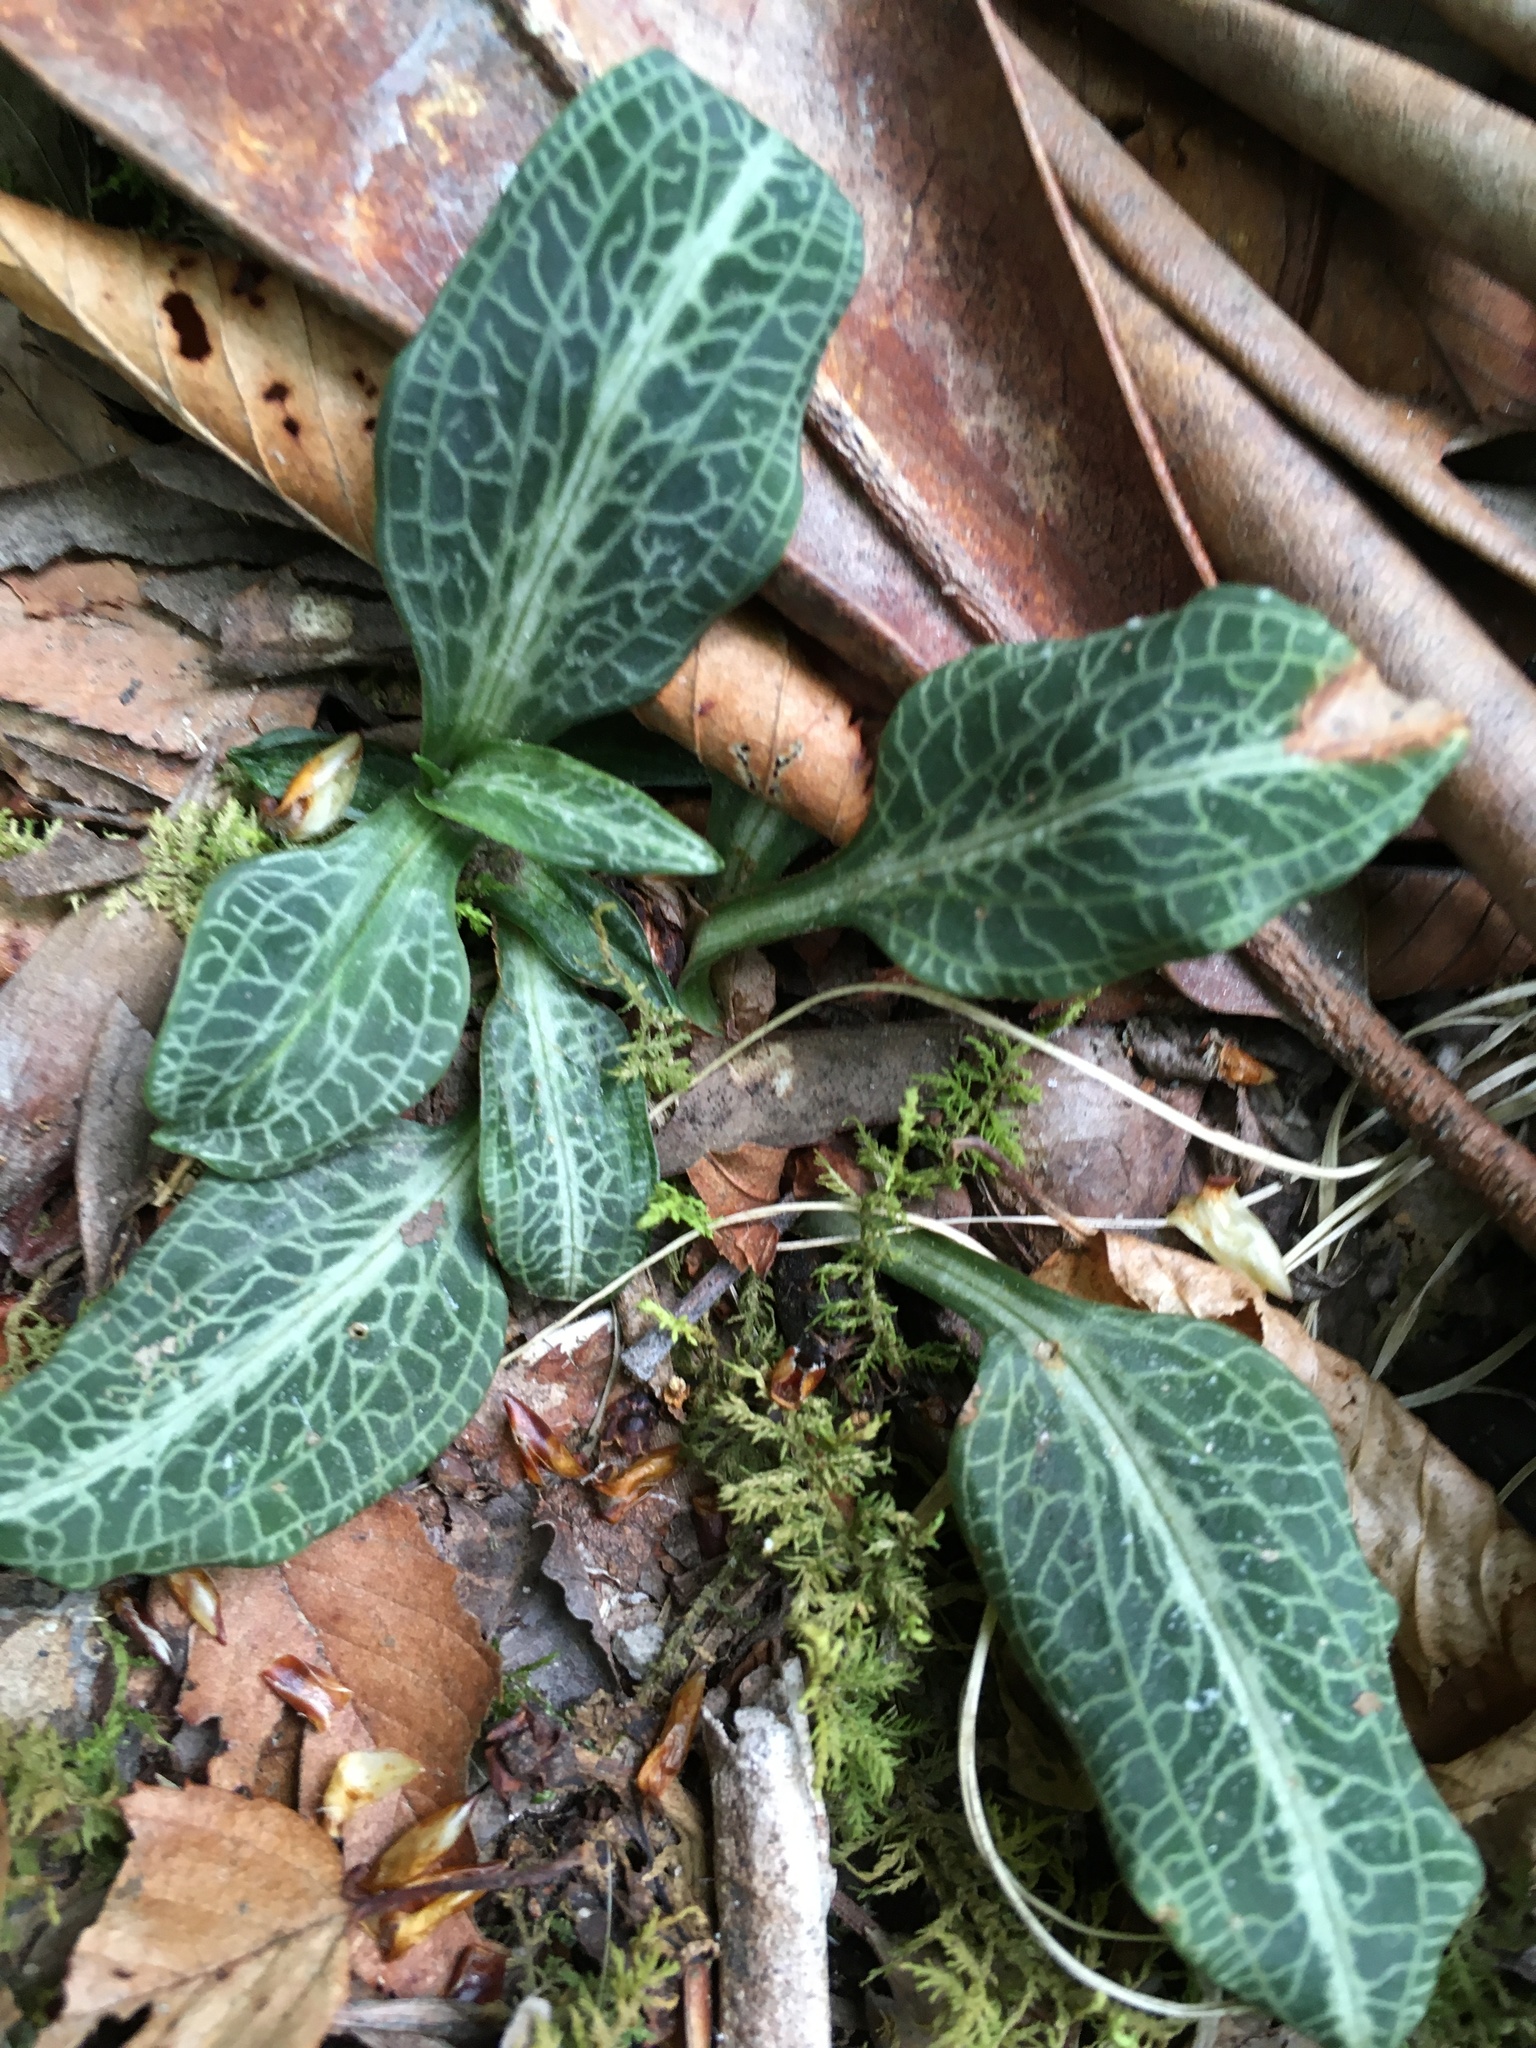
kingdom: Plantae
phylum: Tracheophyta
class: Liliopsida
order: Asparagales
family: Orchidaceae
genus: Goodyera
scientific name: Goodyera pubescens
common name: Downy rattlesnake-plantain
